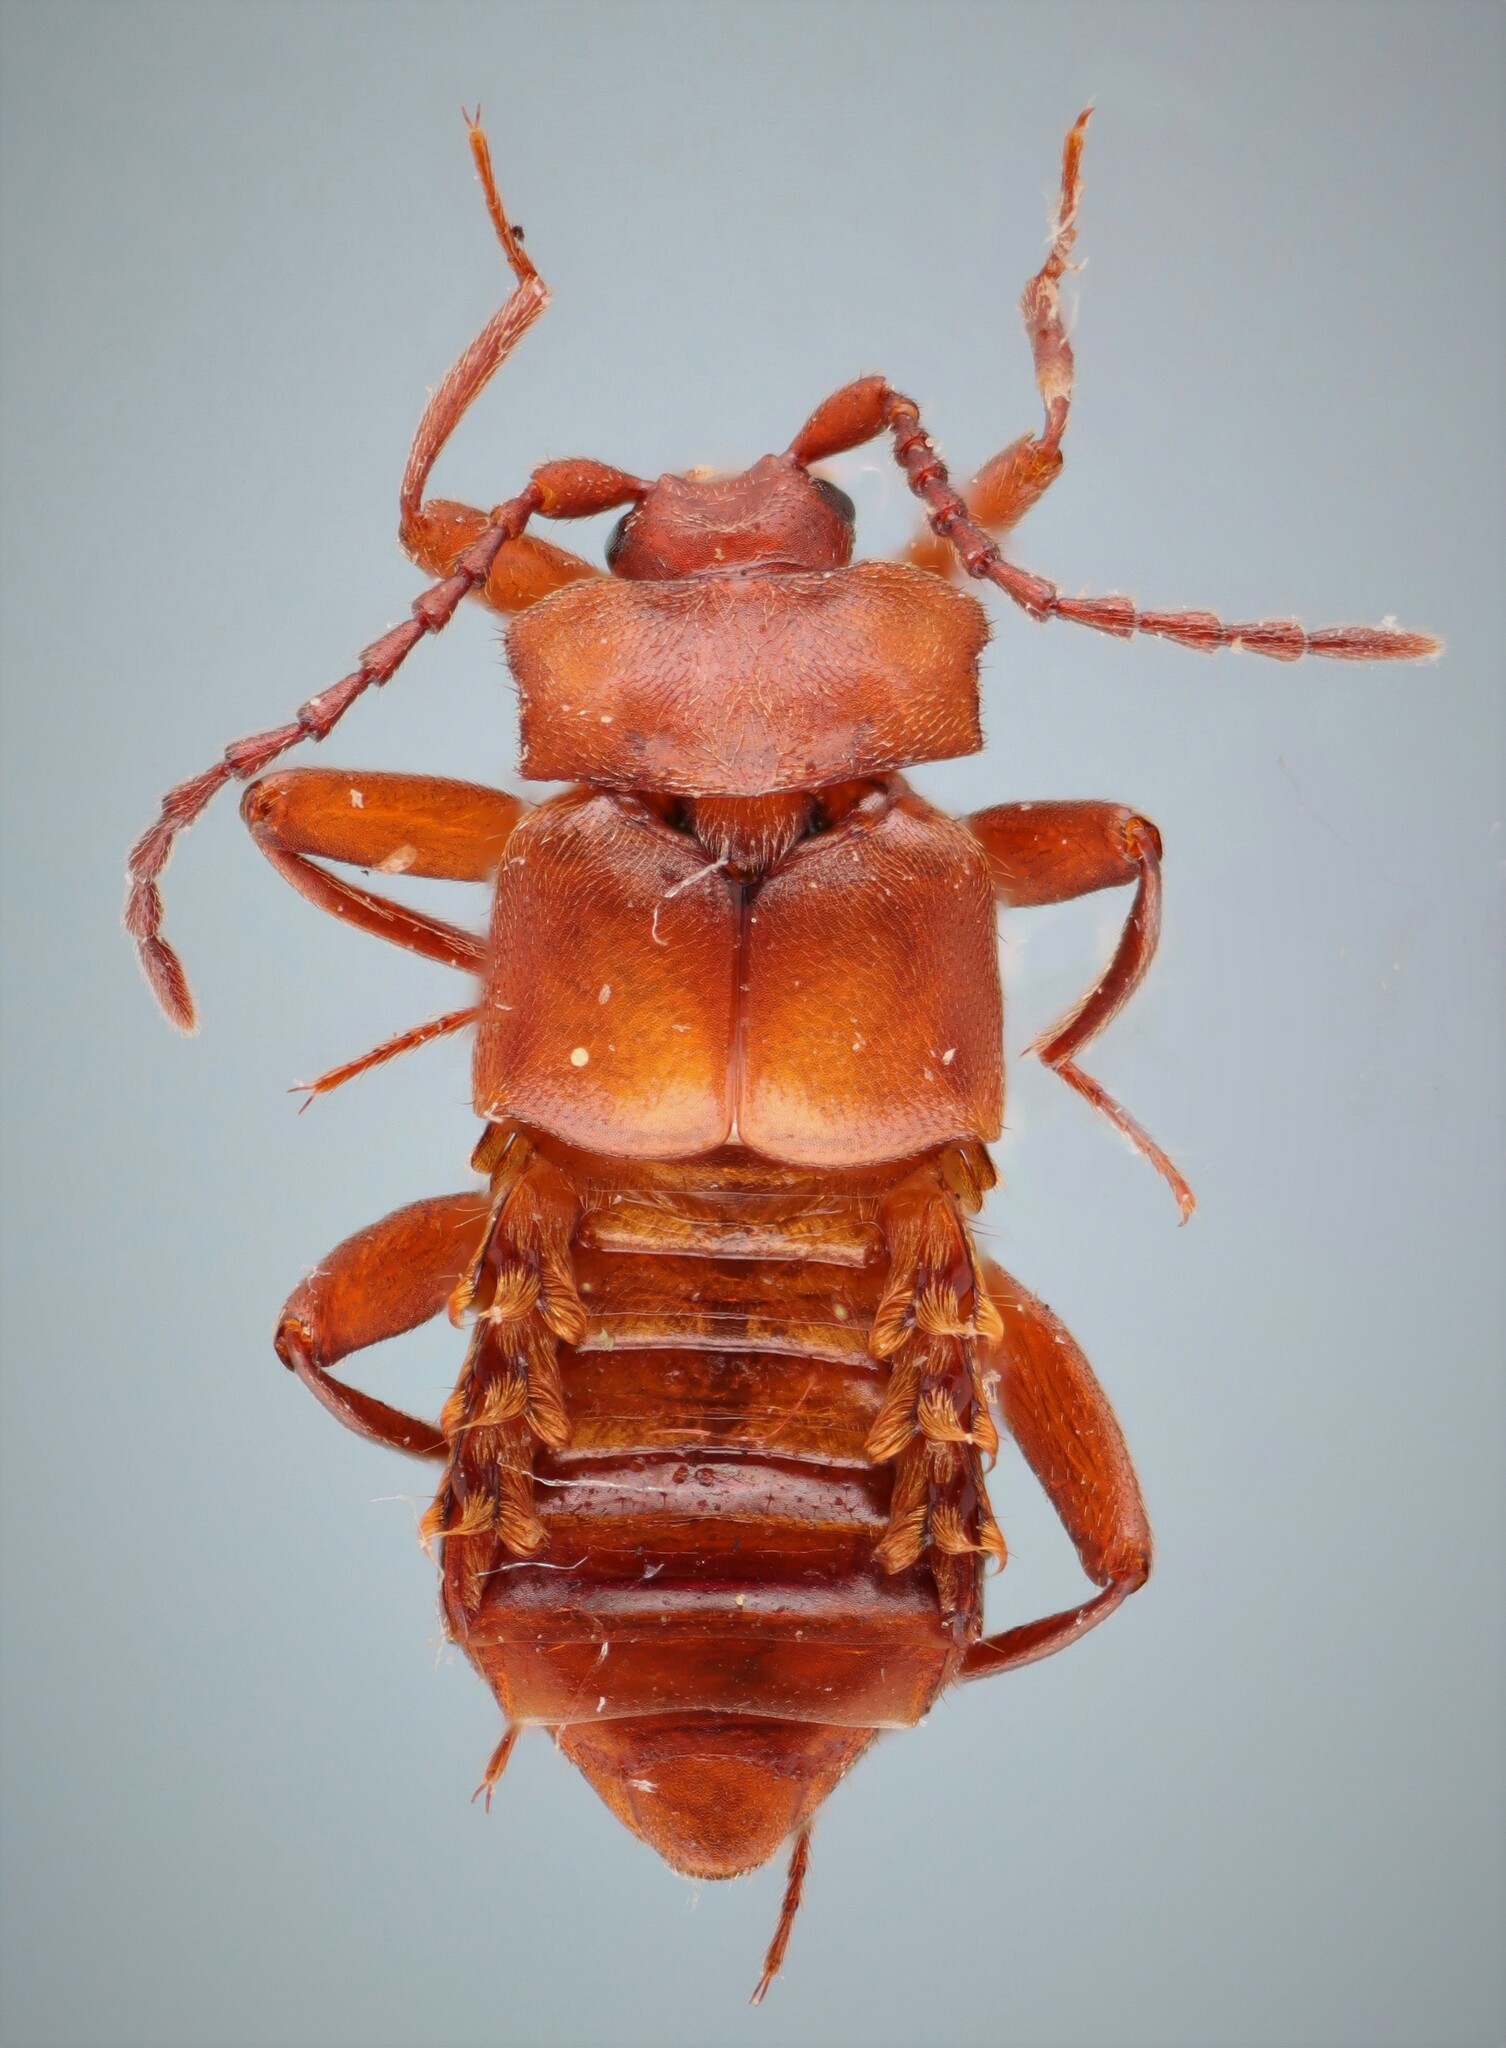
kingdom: Animalia
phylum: Arthropoda
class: Insecta
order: Coleoptera
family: Staphylinidae
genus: Xenodusa
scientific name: Xenodusa reflexa
